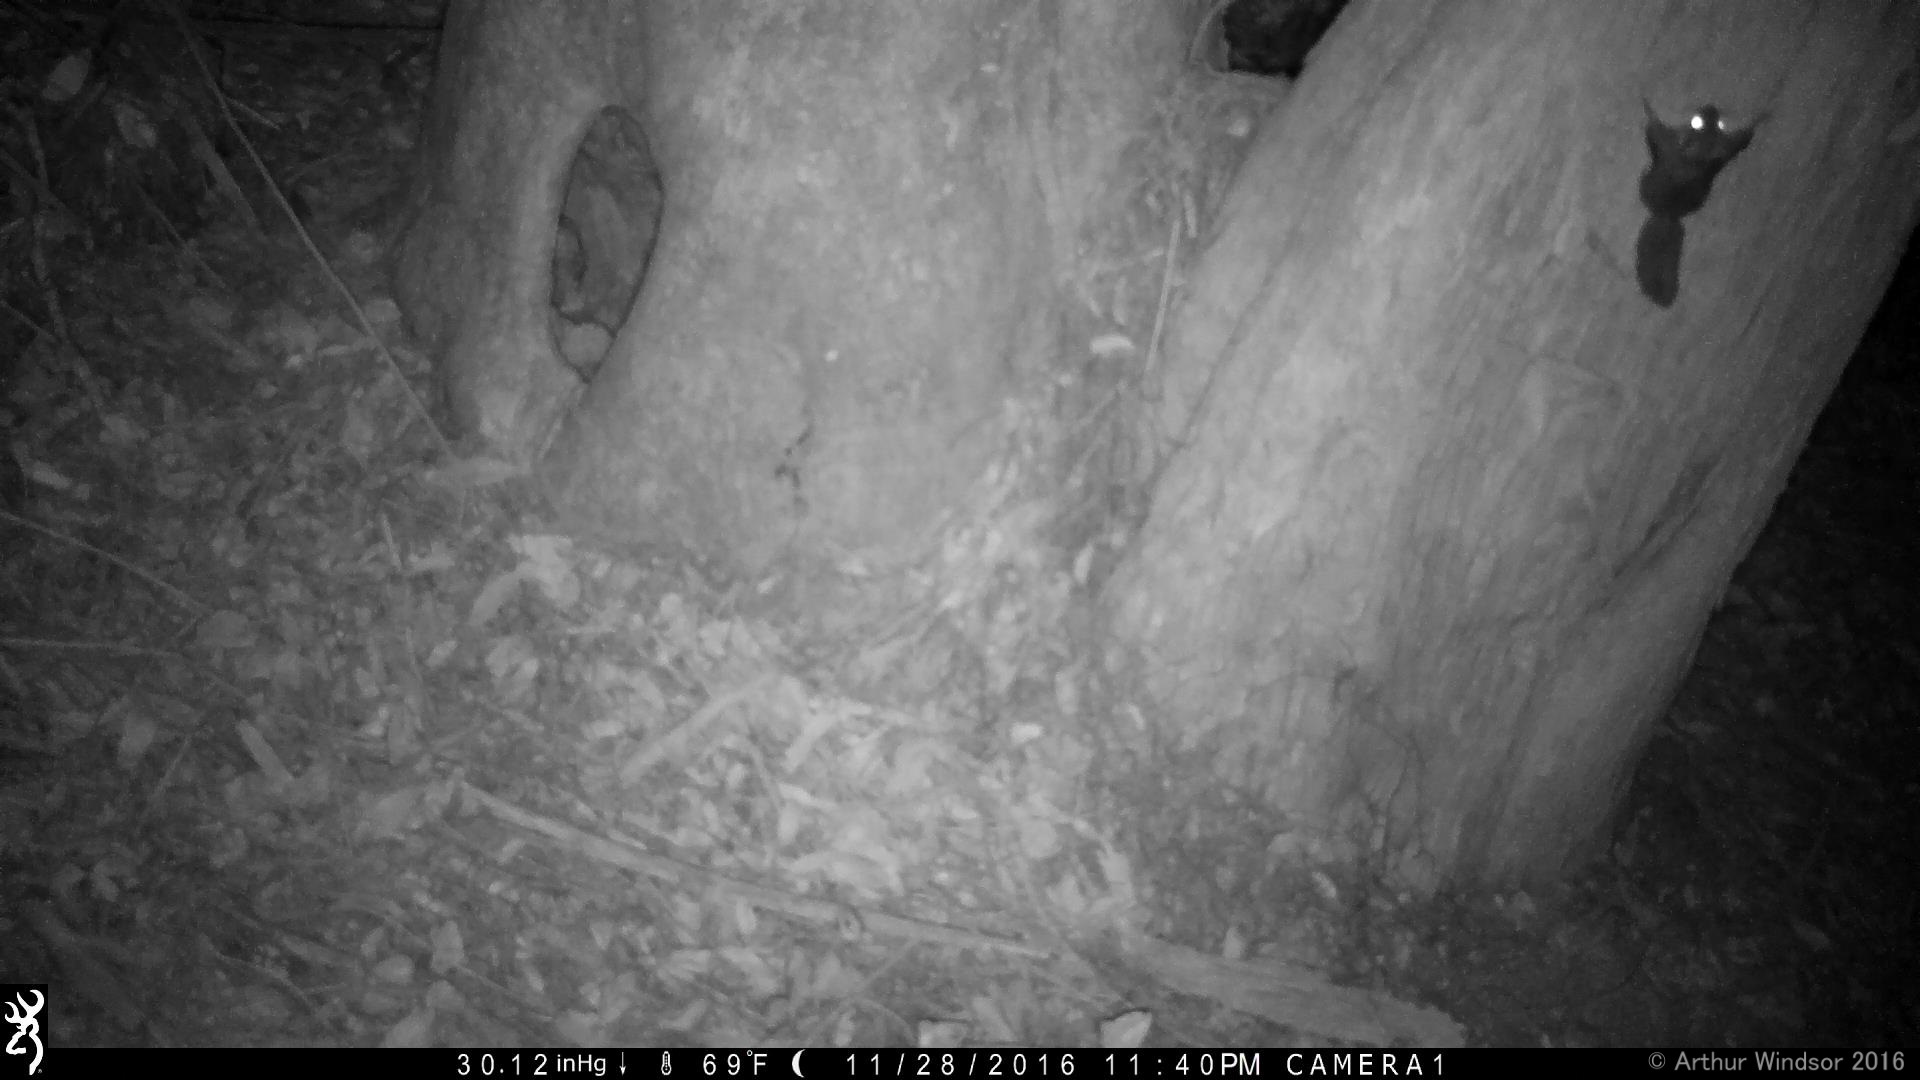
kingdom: Animalia
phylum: Chordata
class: Mammalia
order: Rodentia
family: Sciuridae
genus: Glaucomys
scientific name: Glaucomys volans
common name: Southern flying squirrel
